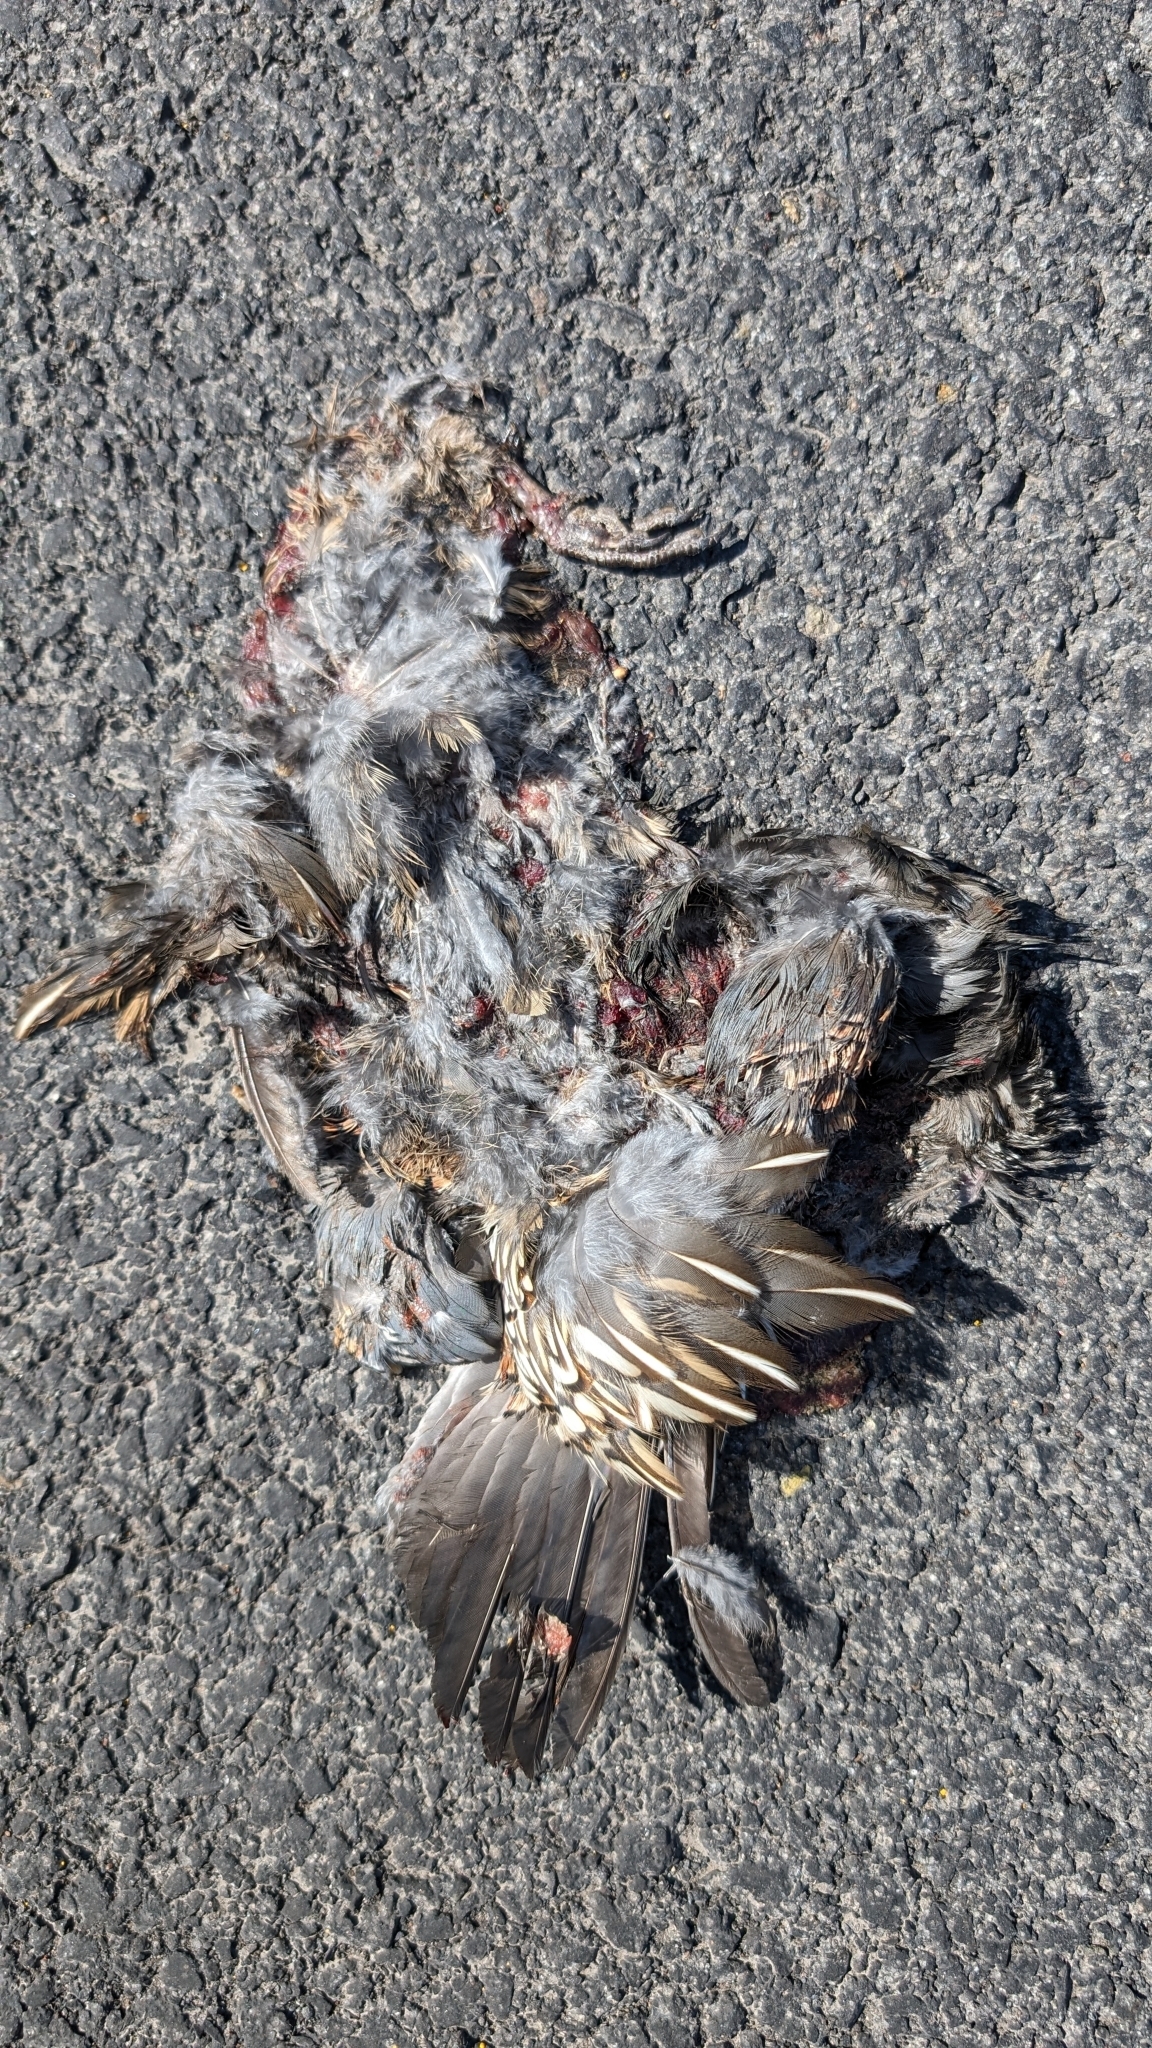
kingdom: Animalia
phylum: Chordata
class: Aves
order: Galliformes
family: Odontophoridae
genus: Callipepla
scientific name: Callipepla californica
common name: California quail
